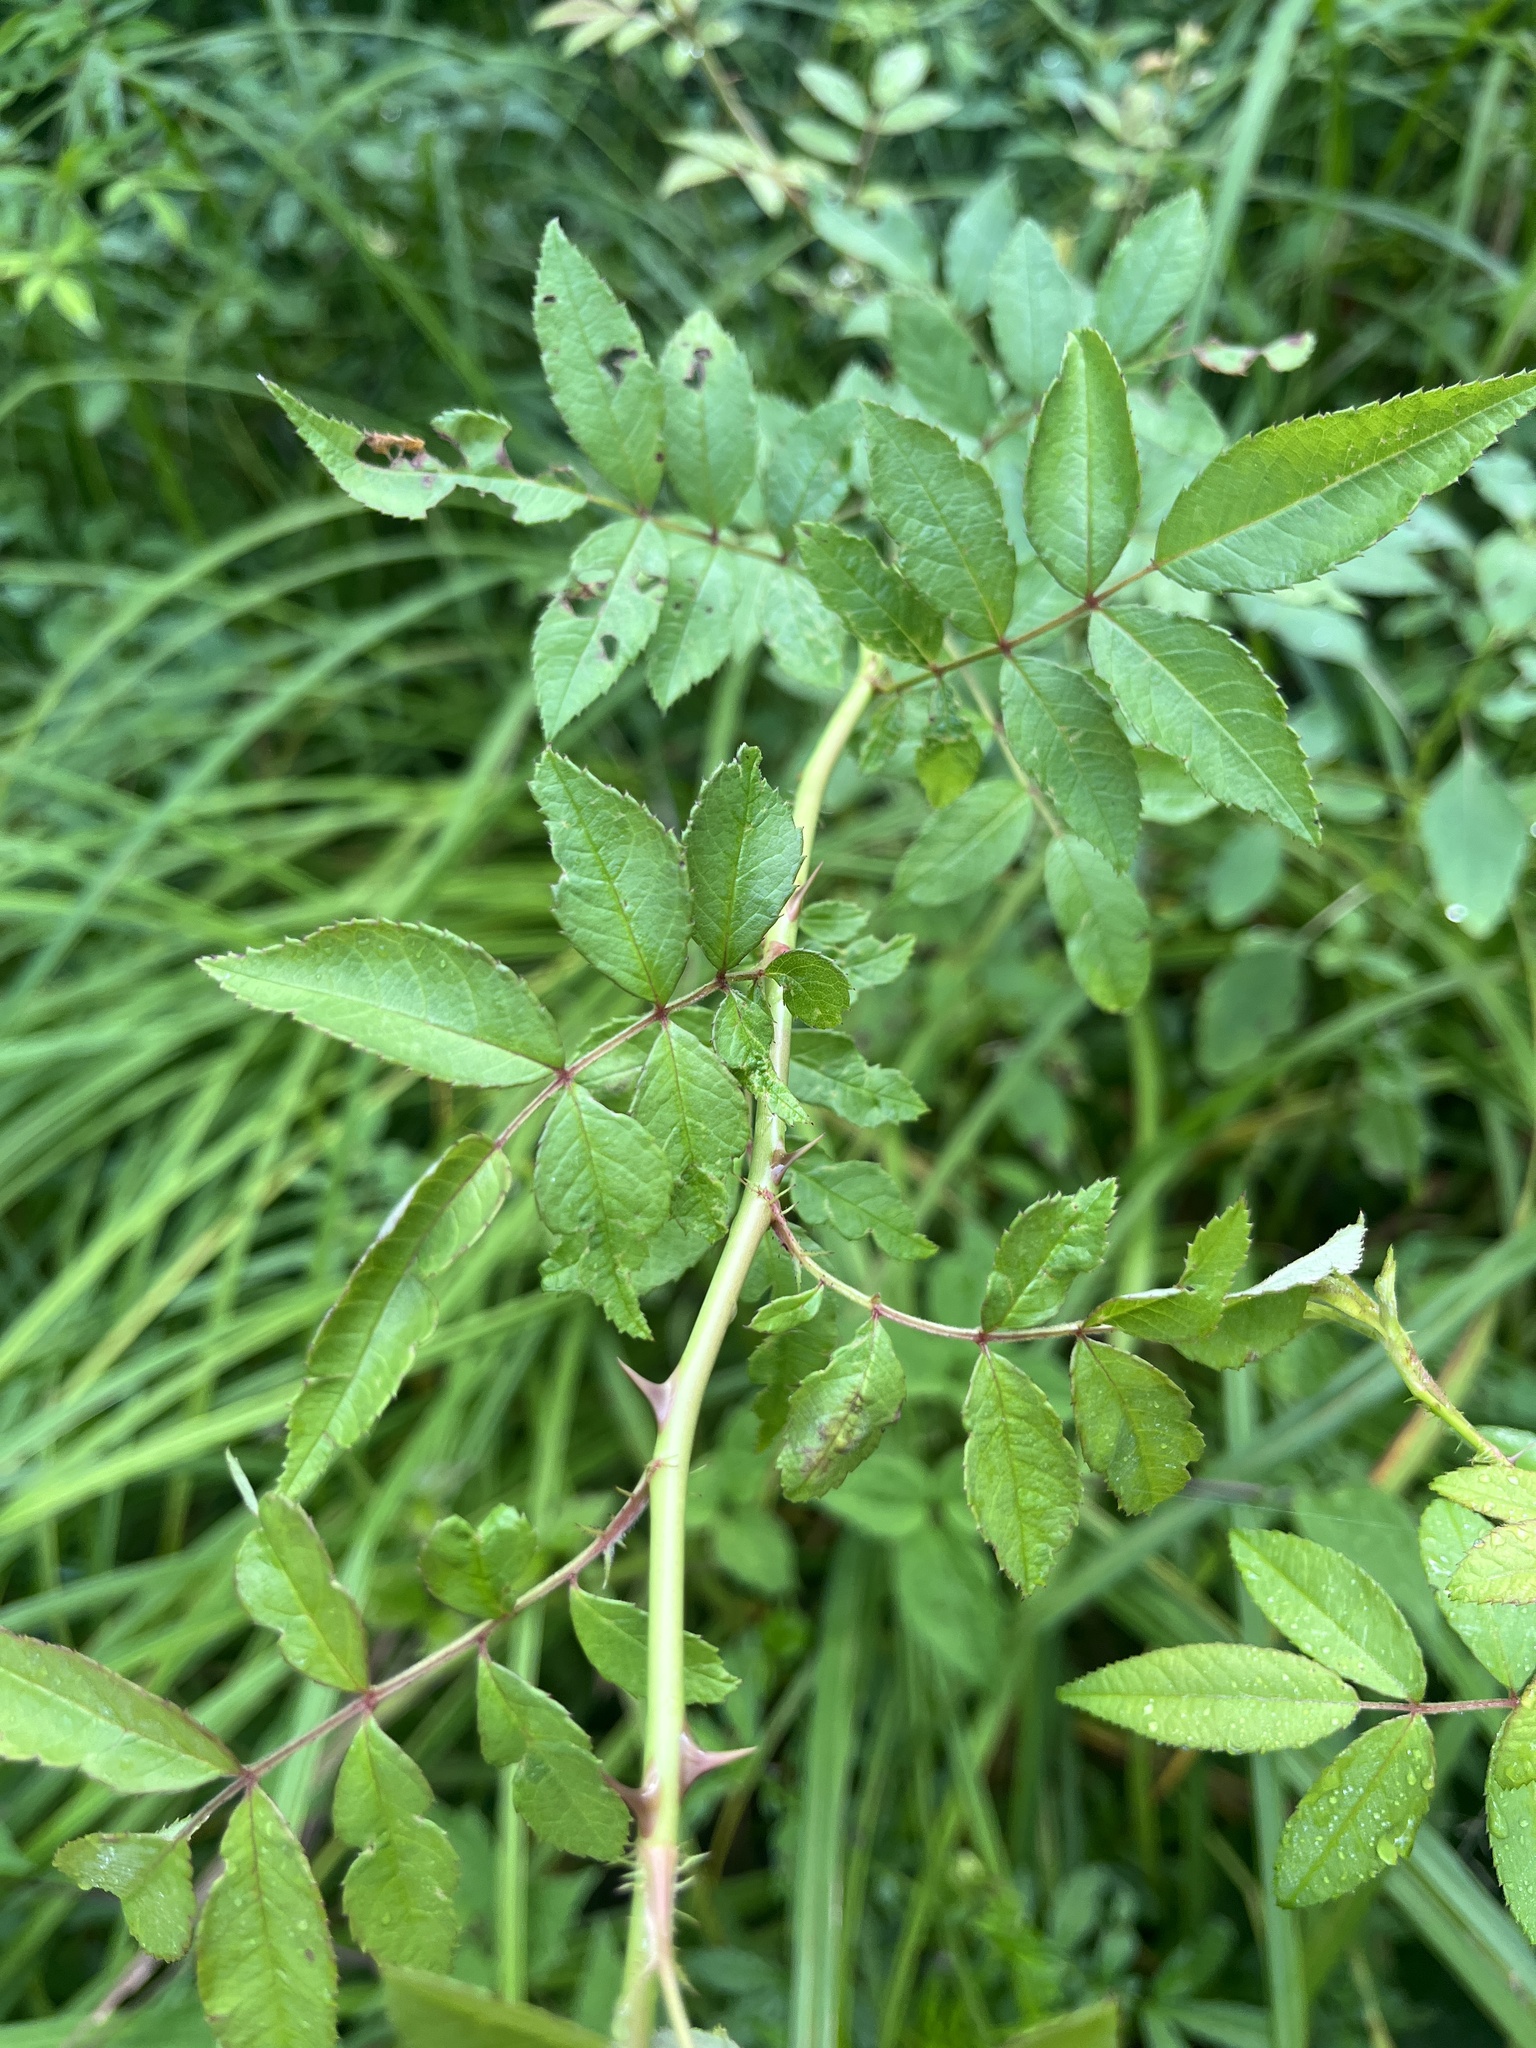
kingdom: Plantae
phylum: Tracheophyta
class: Magnoliopsida
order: Rosales
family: Rosaceae
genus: Rosa
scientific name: Rosa multiflora
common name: Multiflora rose
